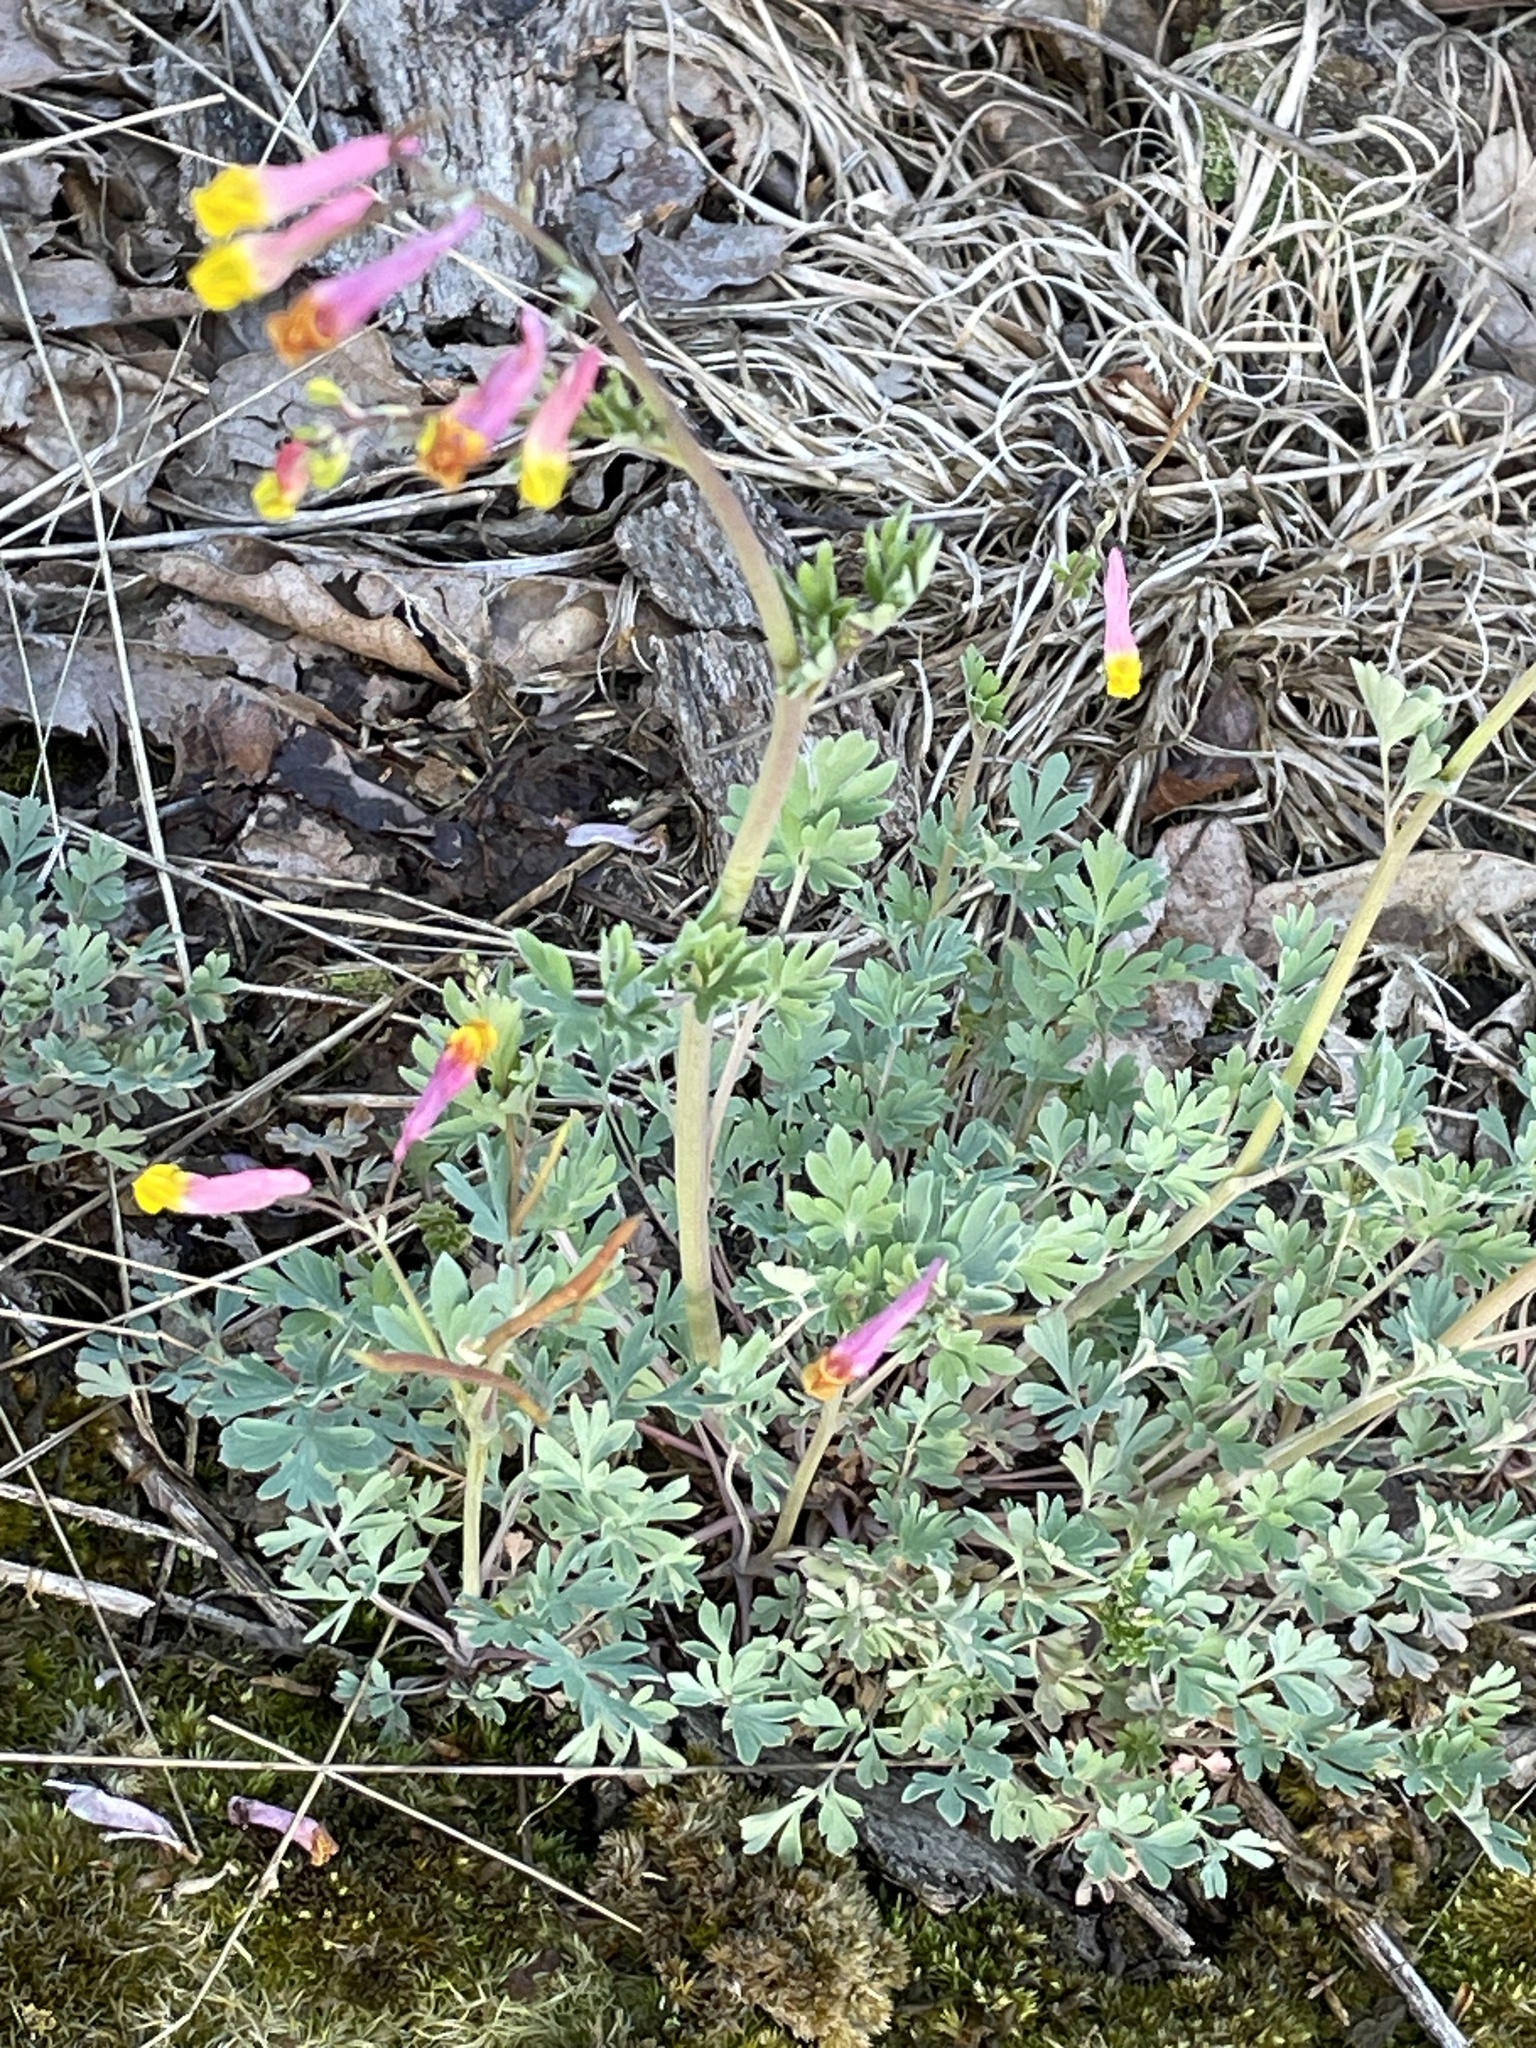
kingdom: Plantae
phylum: Tracheophyta
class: Magnoliopsida
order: Ranunculales
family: Papaveraceae
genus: Capnoides
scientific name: Capnoides sempervirens
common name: Rock harlequin
